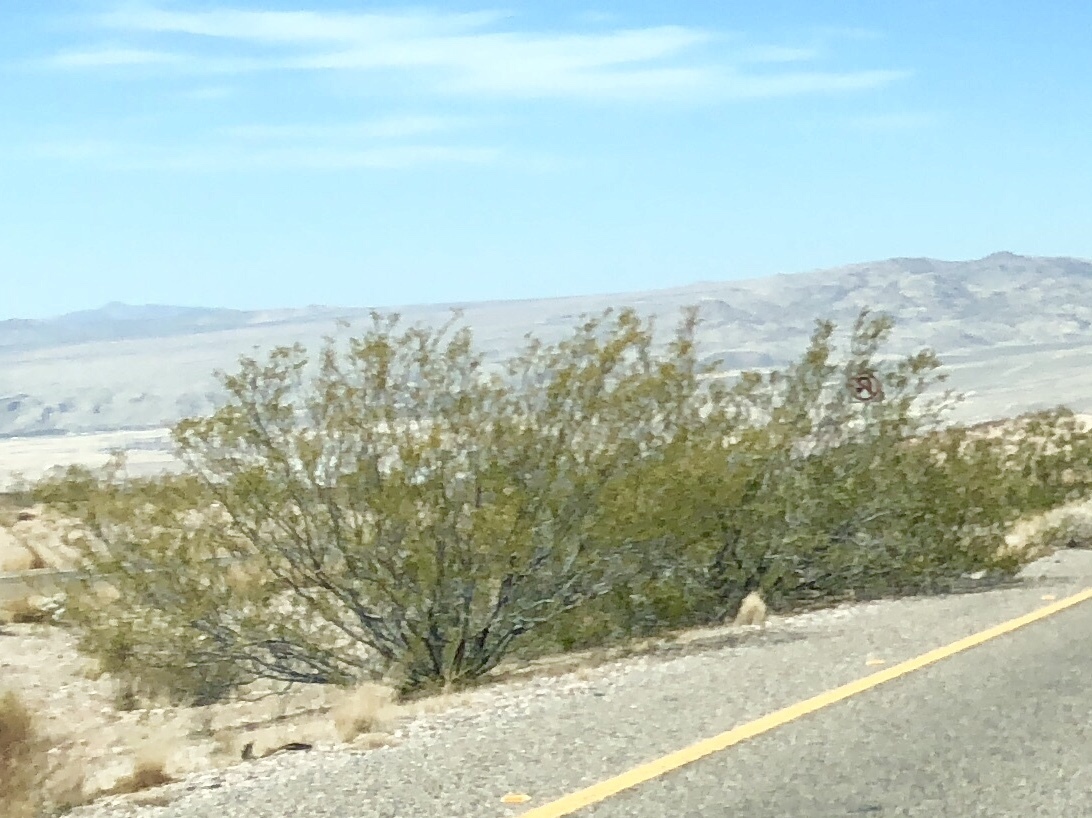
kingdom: Plantae
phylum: Tracheophyta
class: Magnoliopsida
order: Zygophyllales
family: Zygophyllaceae
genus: Larrea
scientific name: Larrea tridentata
